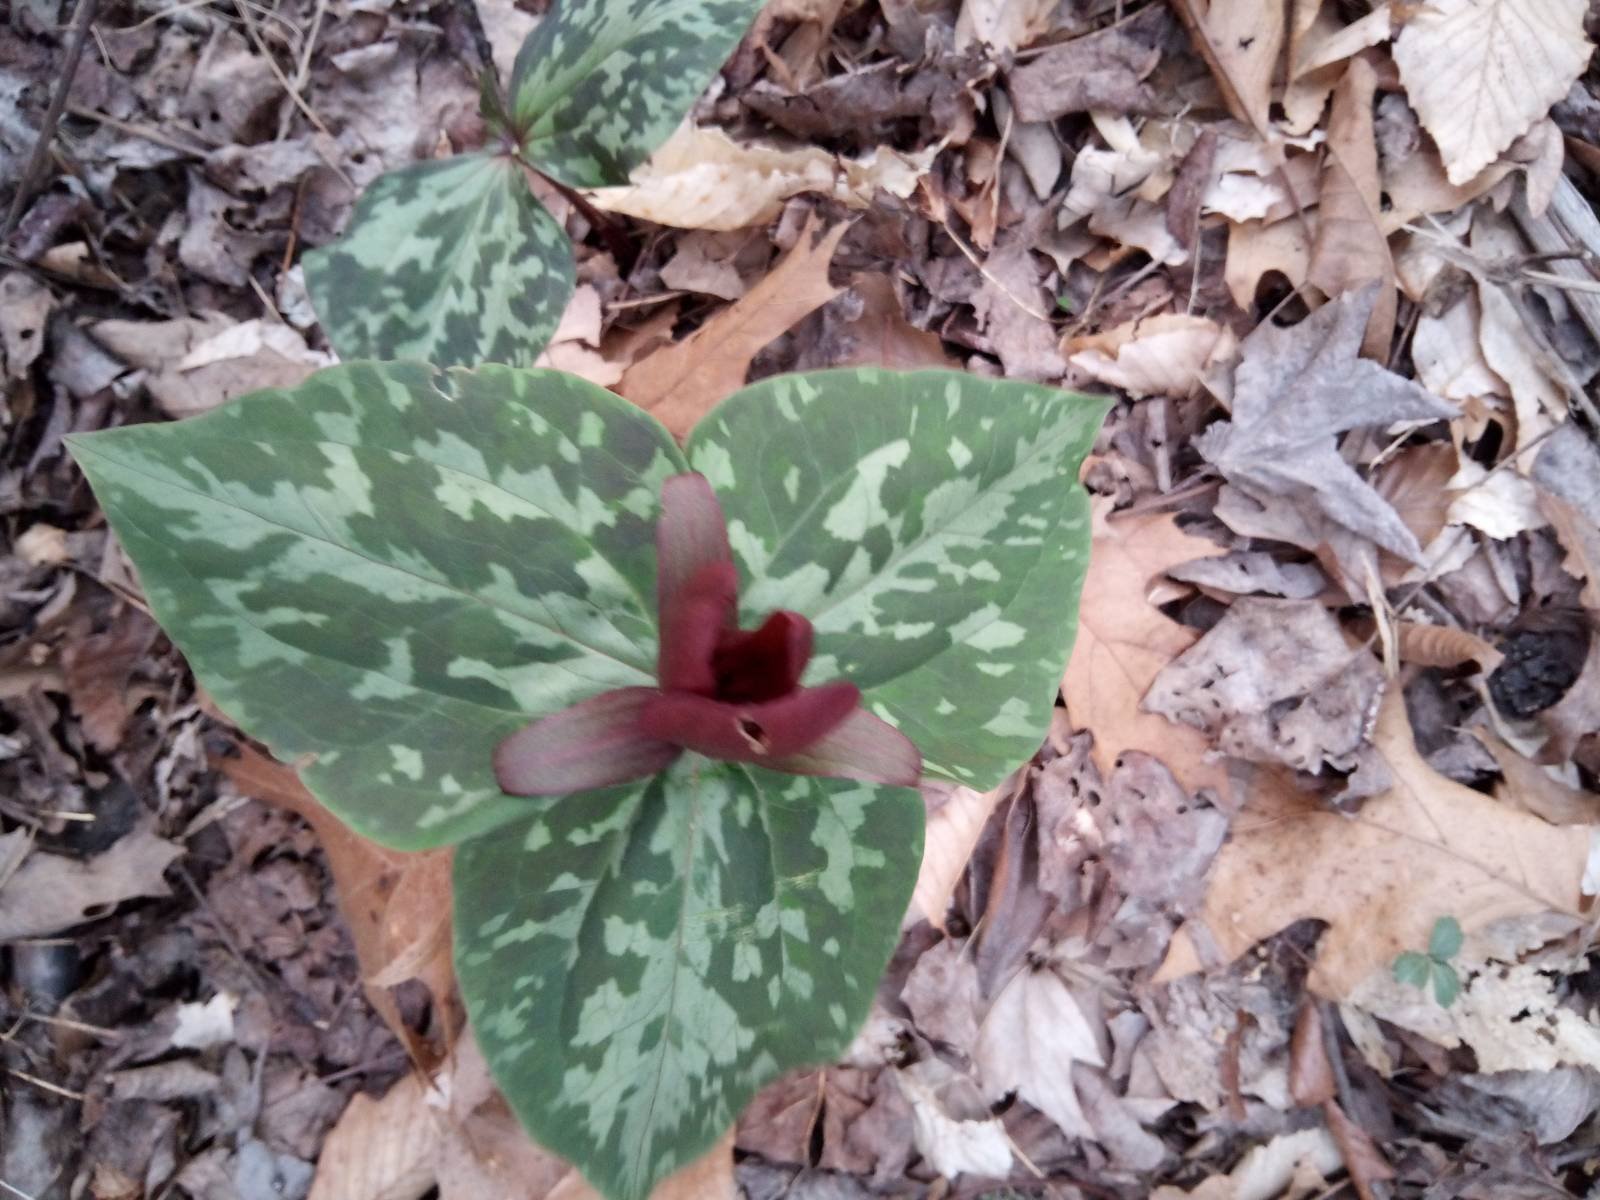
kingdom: Plantae
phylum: Tracheophyta
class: Liliopsida
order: Liliales
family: Melanthiaceae
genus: Trillium
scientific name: Trillium cuneatum
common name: Cuneate trillium
